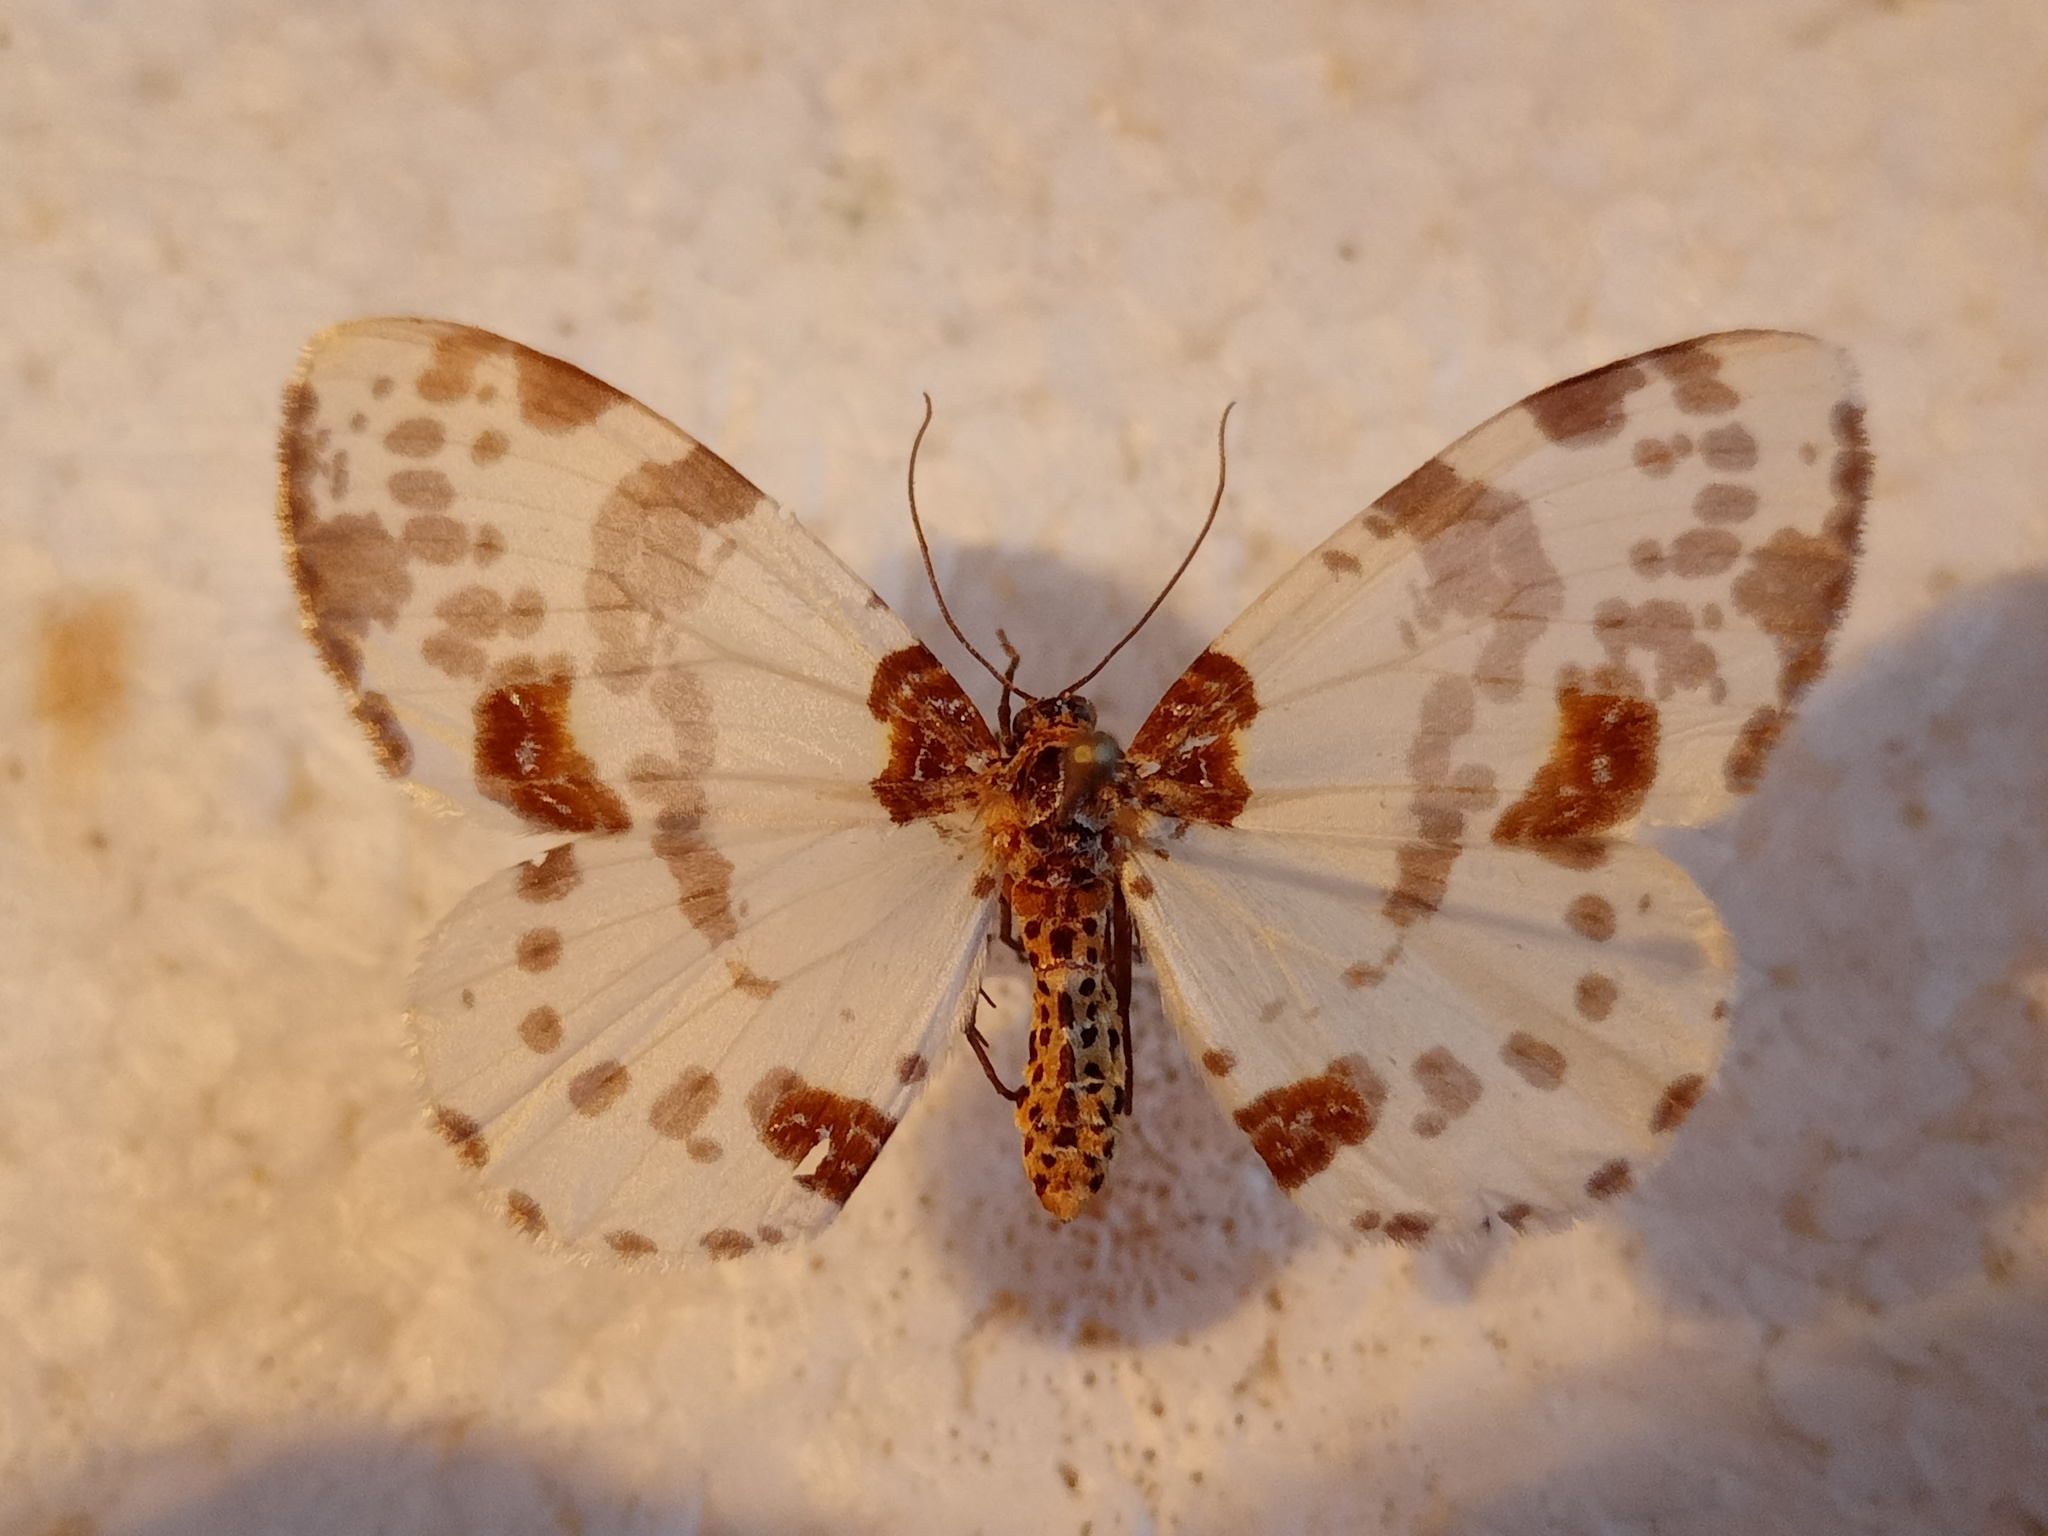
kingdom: Animalia
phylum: Arthropoda
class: Insecta
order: Lepidoptera
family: Geometridae
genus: Abraxas
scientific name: Abraxas persimplex
